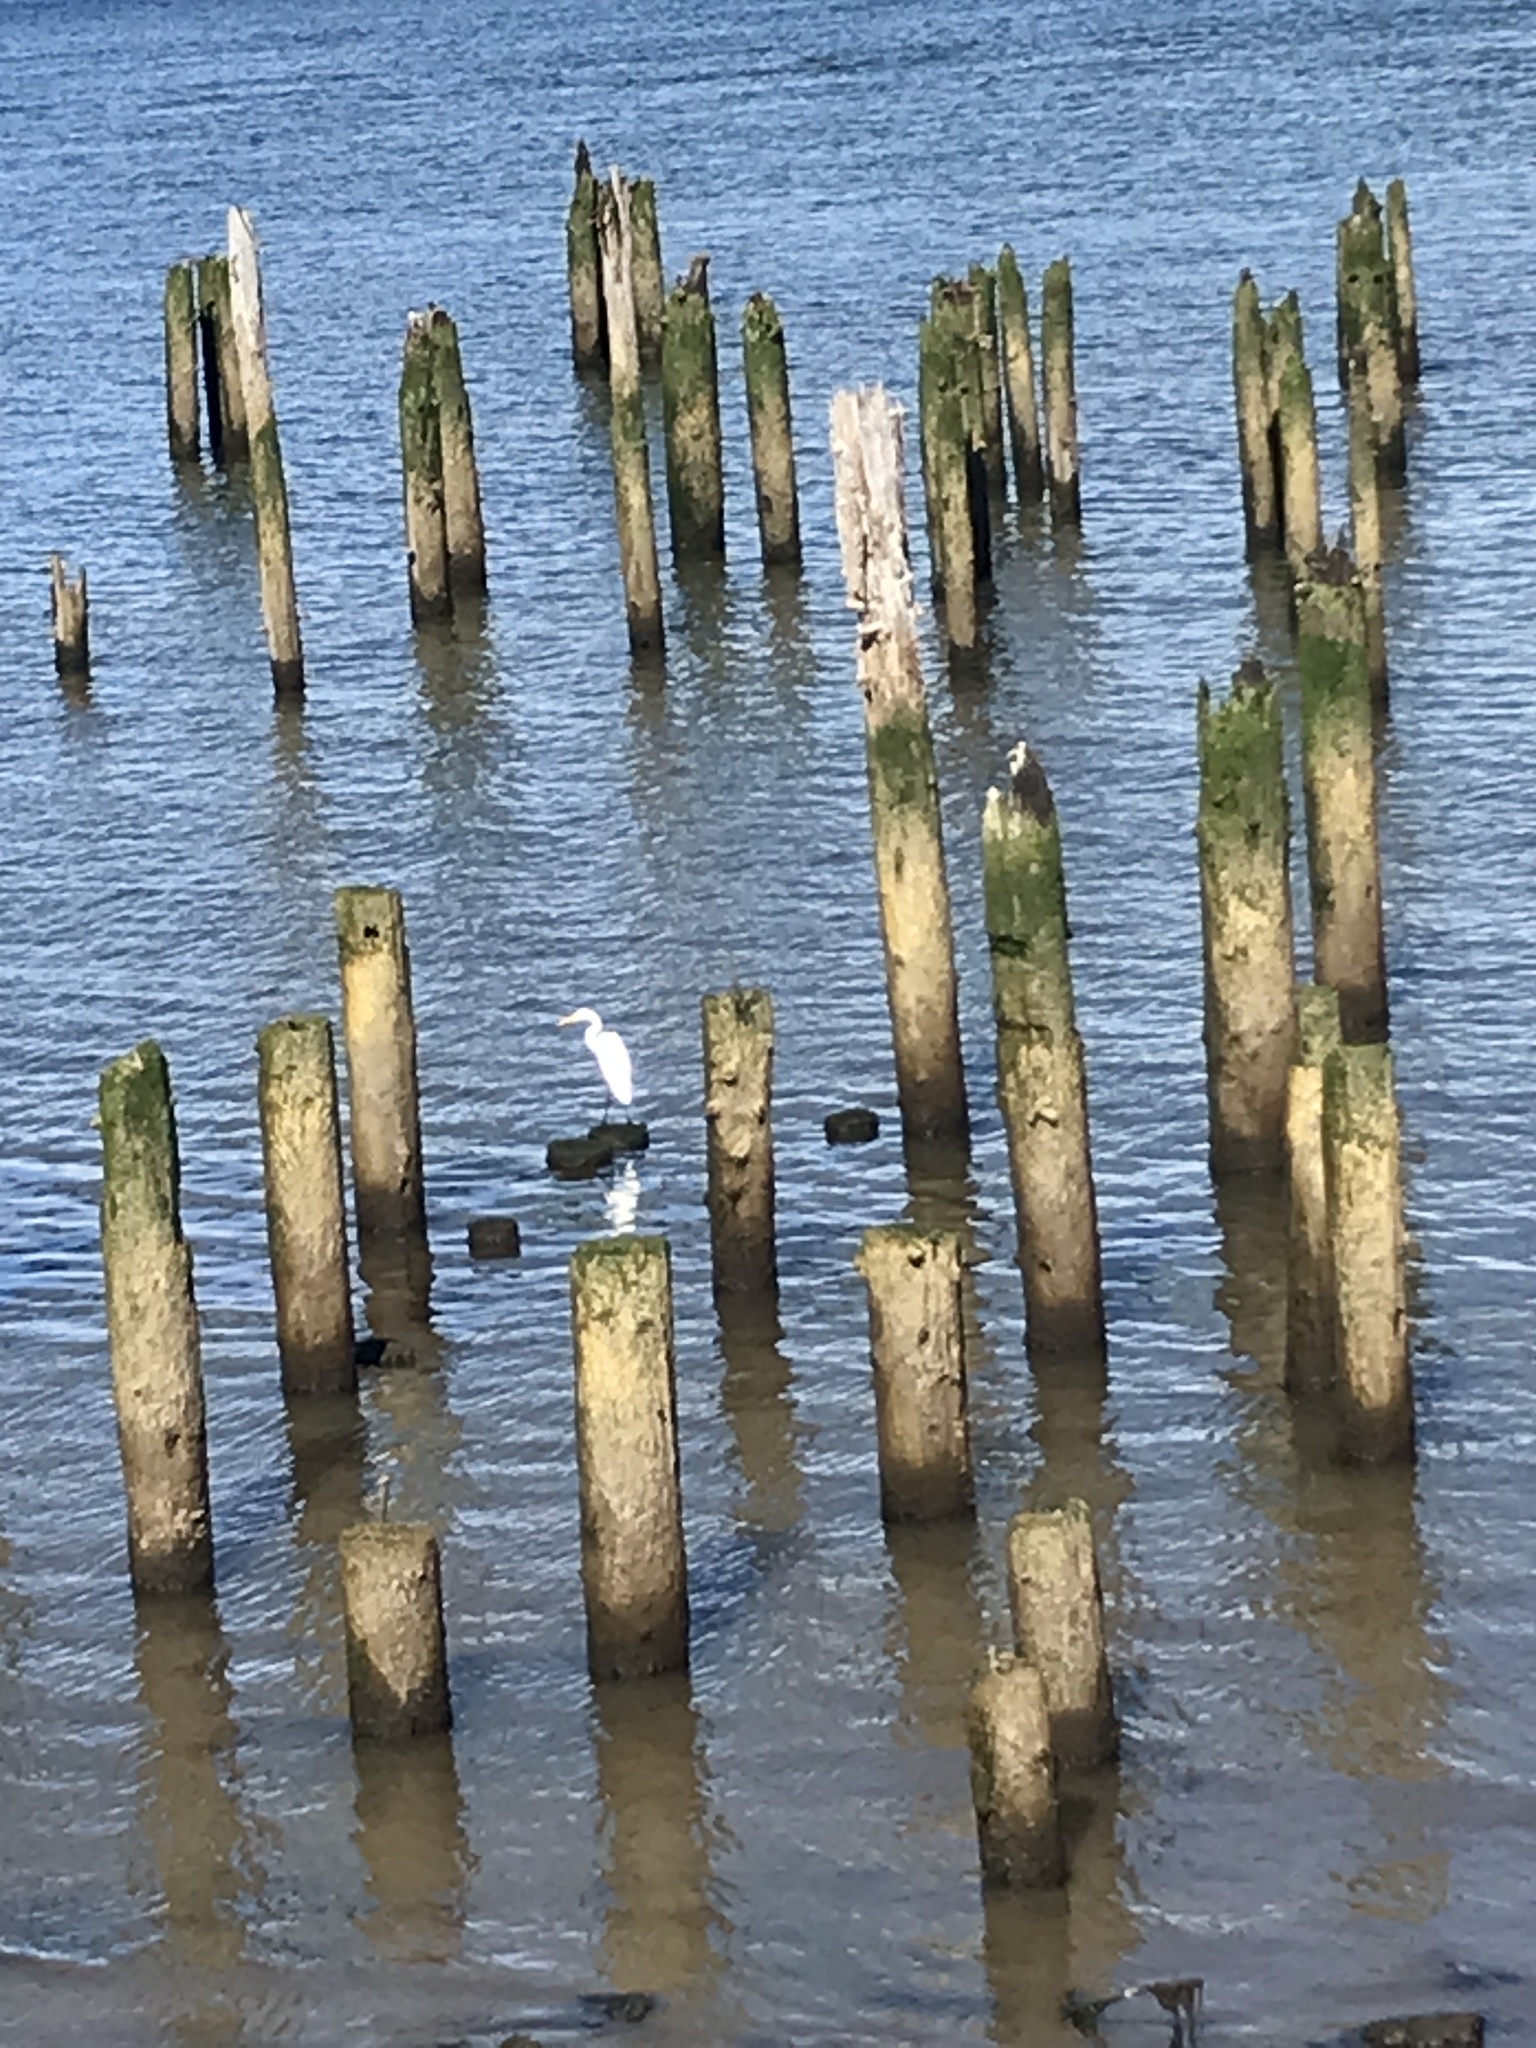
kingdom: Animalia
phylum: Chordata
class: Aves
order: Pelecaniformes
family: Ardeidae
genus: Ardea
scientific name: Ardea alba
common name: Great egret
